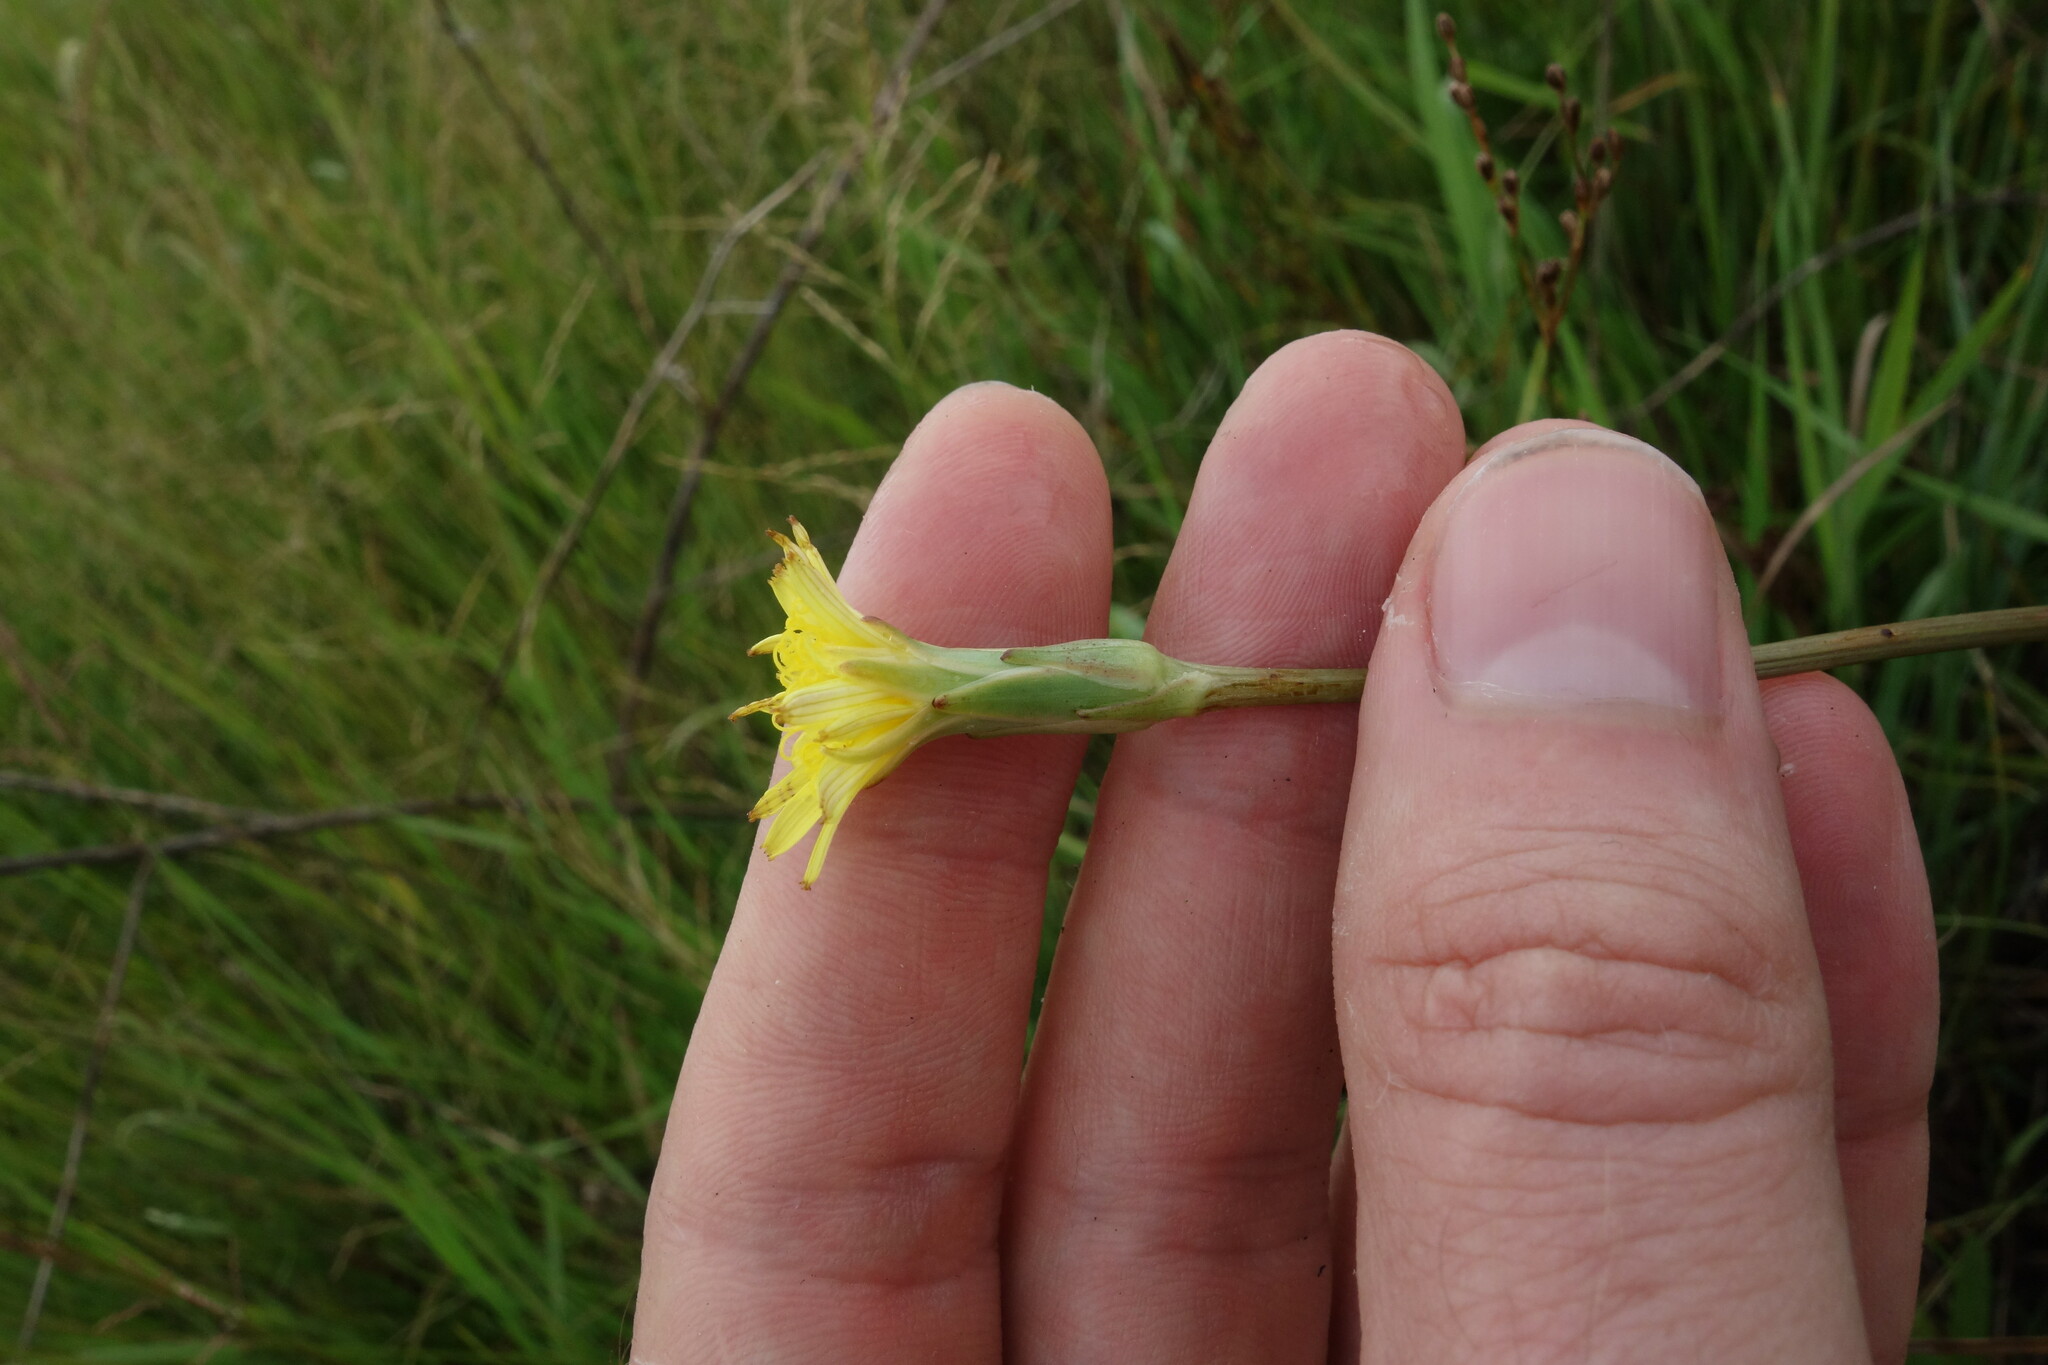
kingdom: Plantae
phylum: Tracheophyta
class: Magnoliopsida
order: Asterales
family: Asteraceae
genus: Scorzonera
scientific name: Scorzonera parviflora
